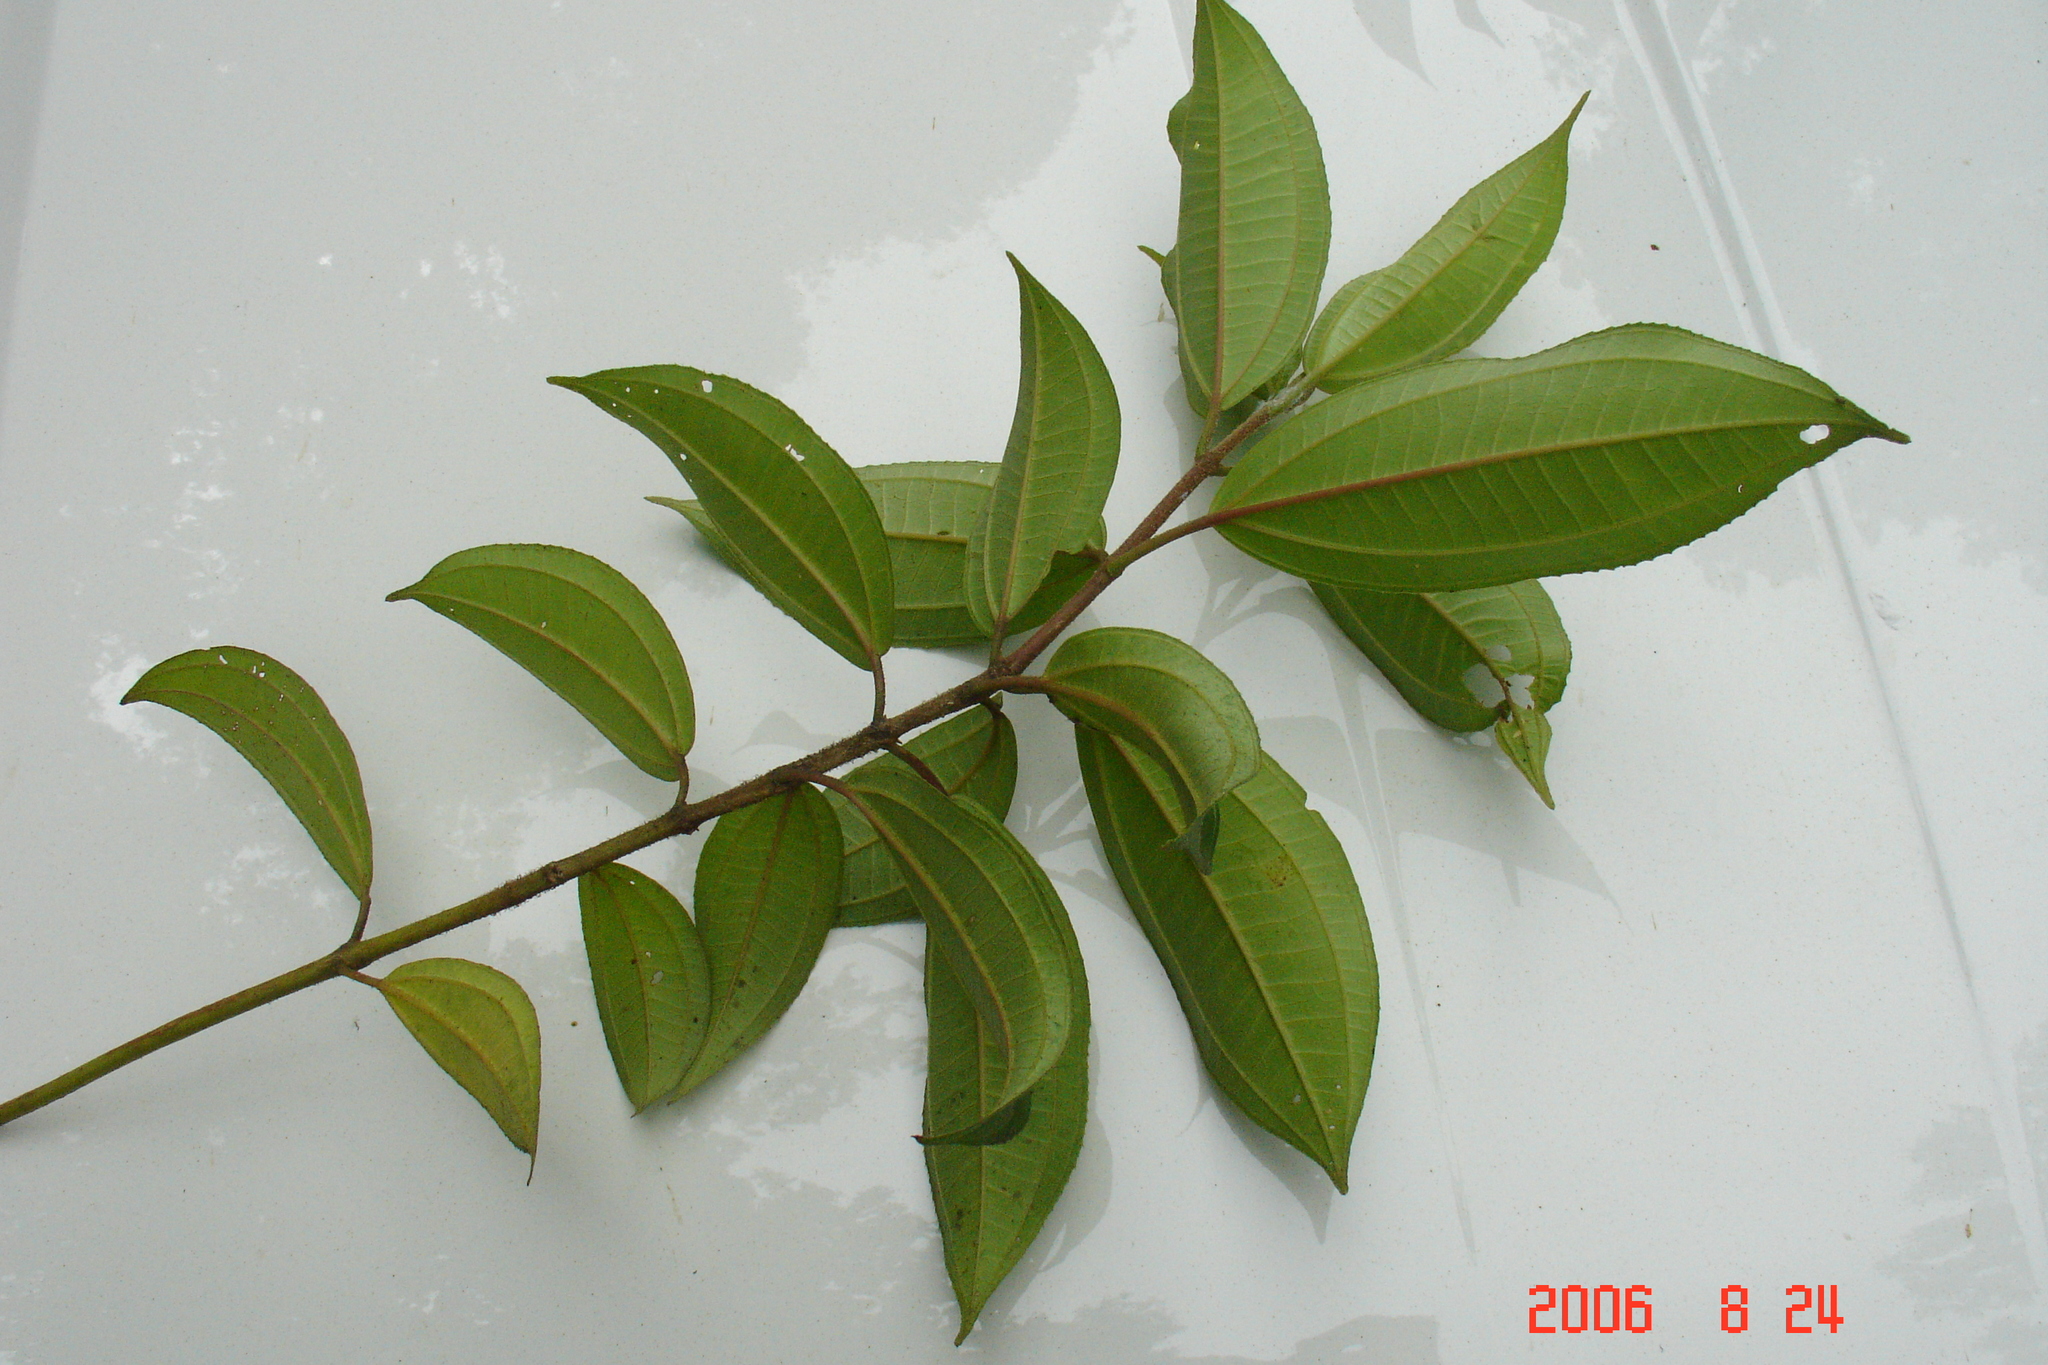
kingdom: Plantae
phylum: Tracheophyta
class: Magnoliopsida
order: Myrtales
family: Melastomataceae
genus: Miconia
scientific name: Miconia subhirsuta
